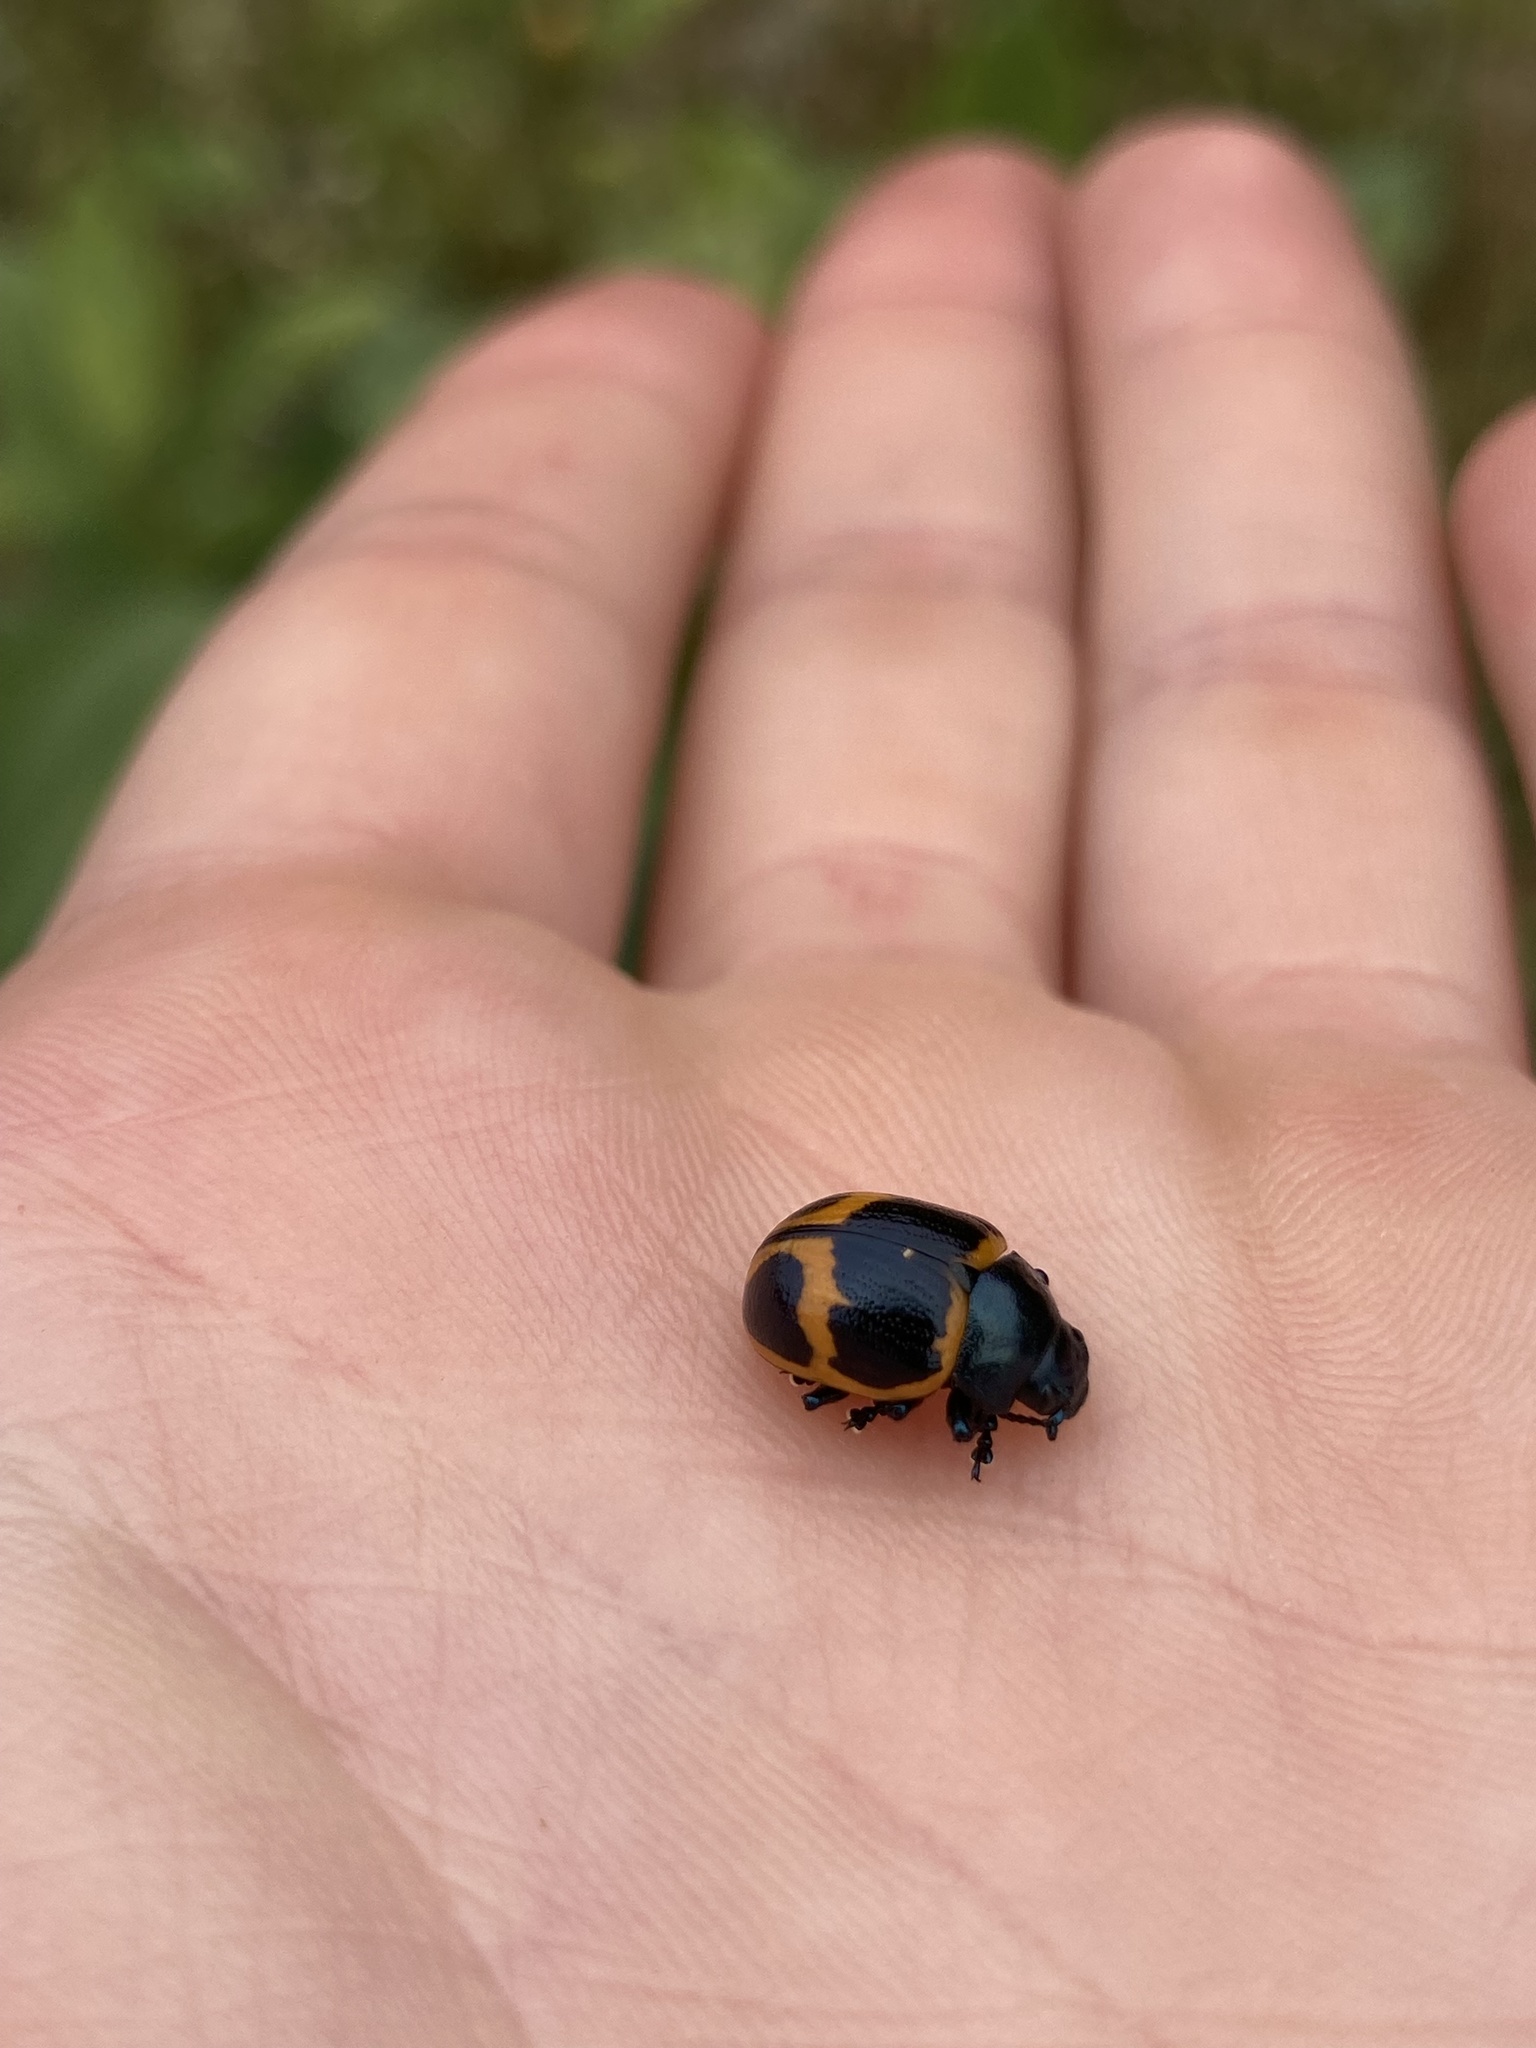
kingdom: Animalia
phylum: Arthropoda
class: Insecta
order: Coleoptera
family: Chrysomelidae
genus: Labidomera
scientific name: Labidomera clivicollis
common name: Swamp milkweed leaf beetle
